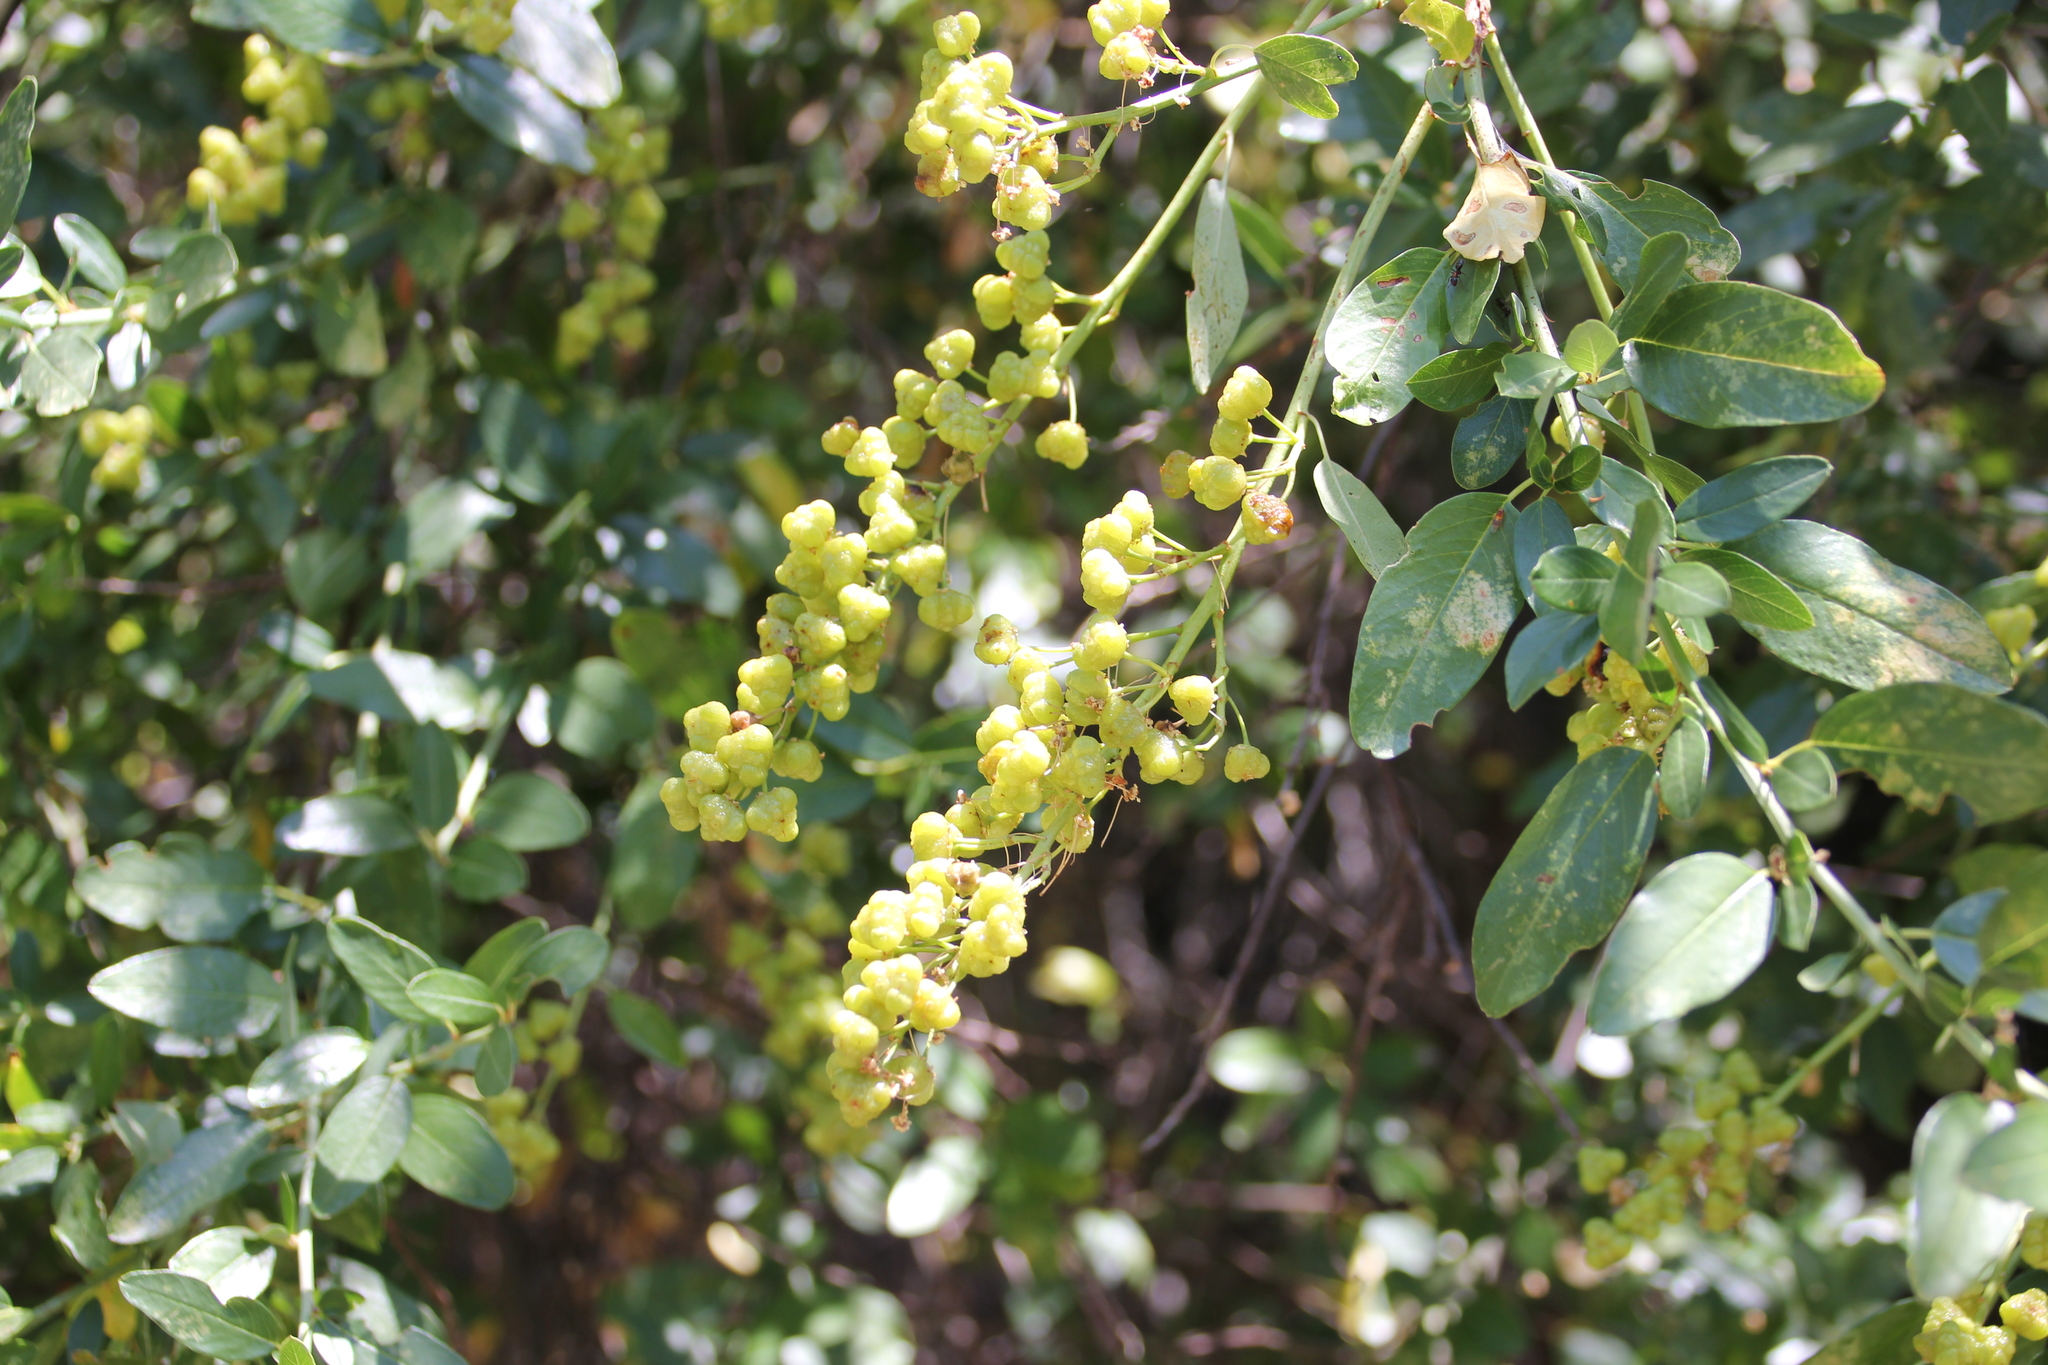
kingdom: Plantae
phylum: Tracheophyta
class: Magnoliopsida
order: Rosales
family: Rhamnaceae
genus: Ceanothus
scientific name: Ceanothus palmeri
